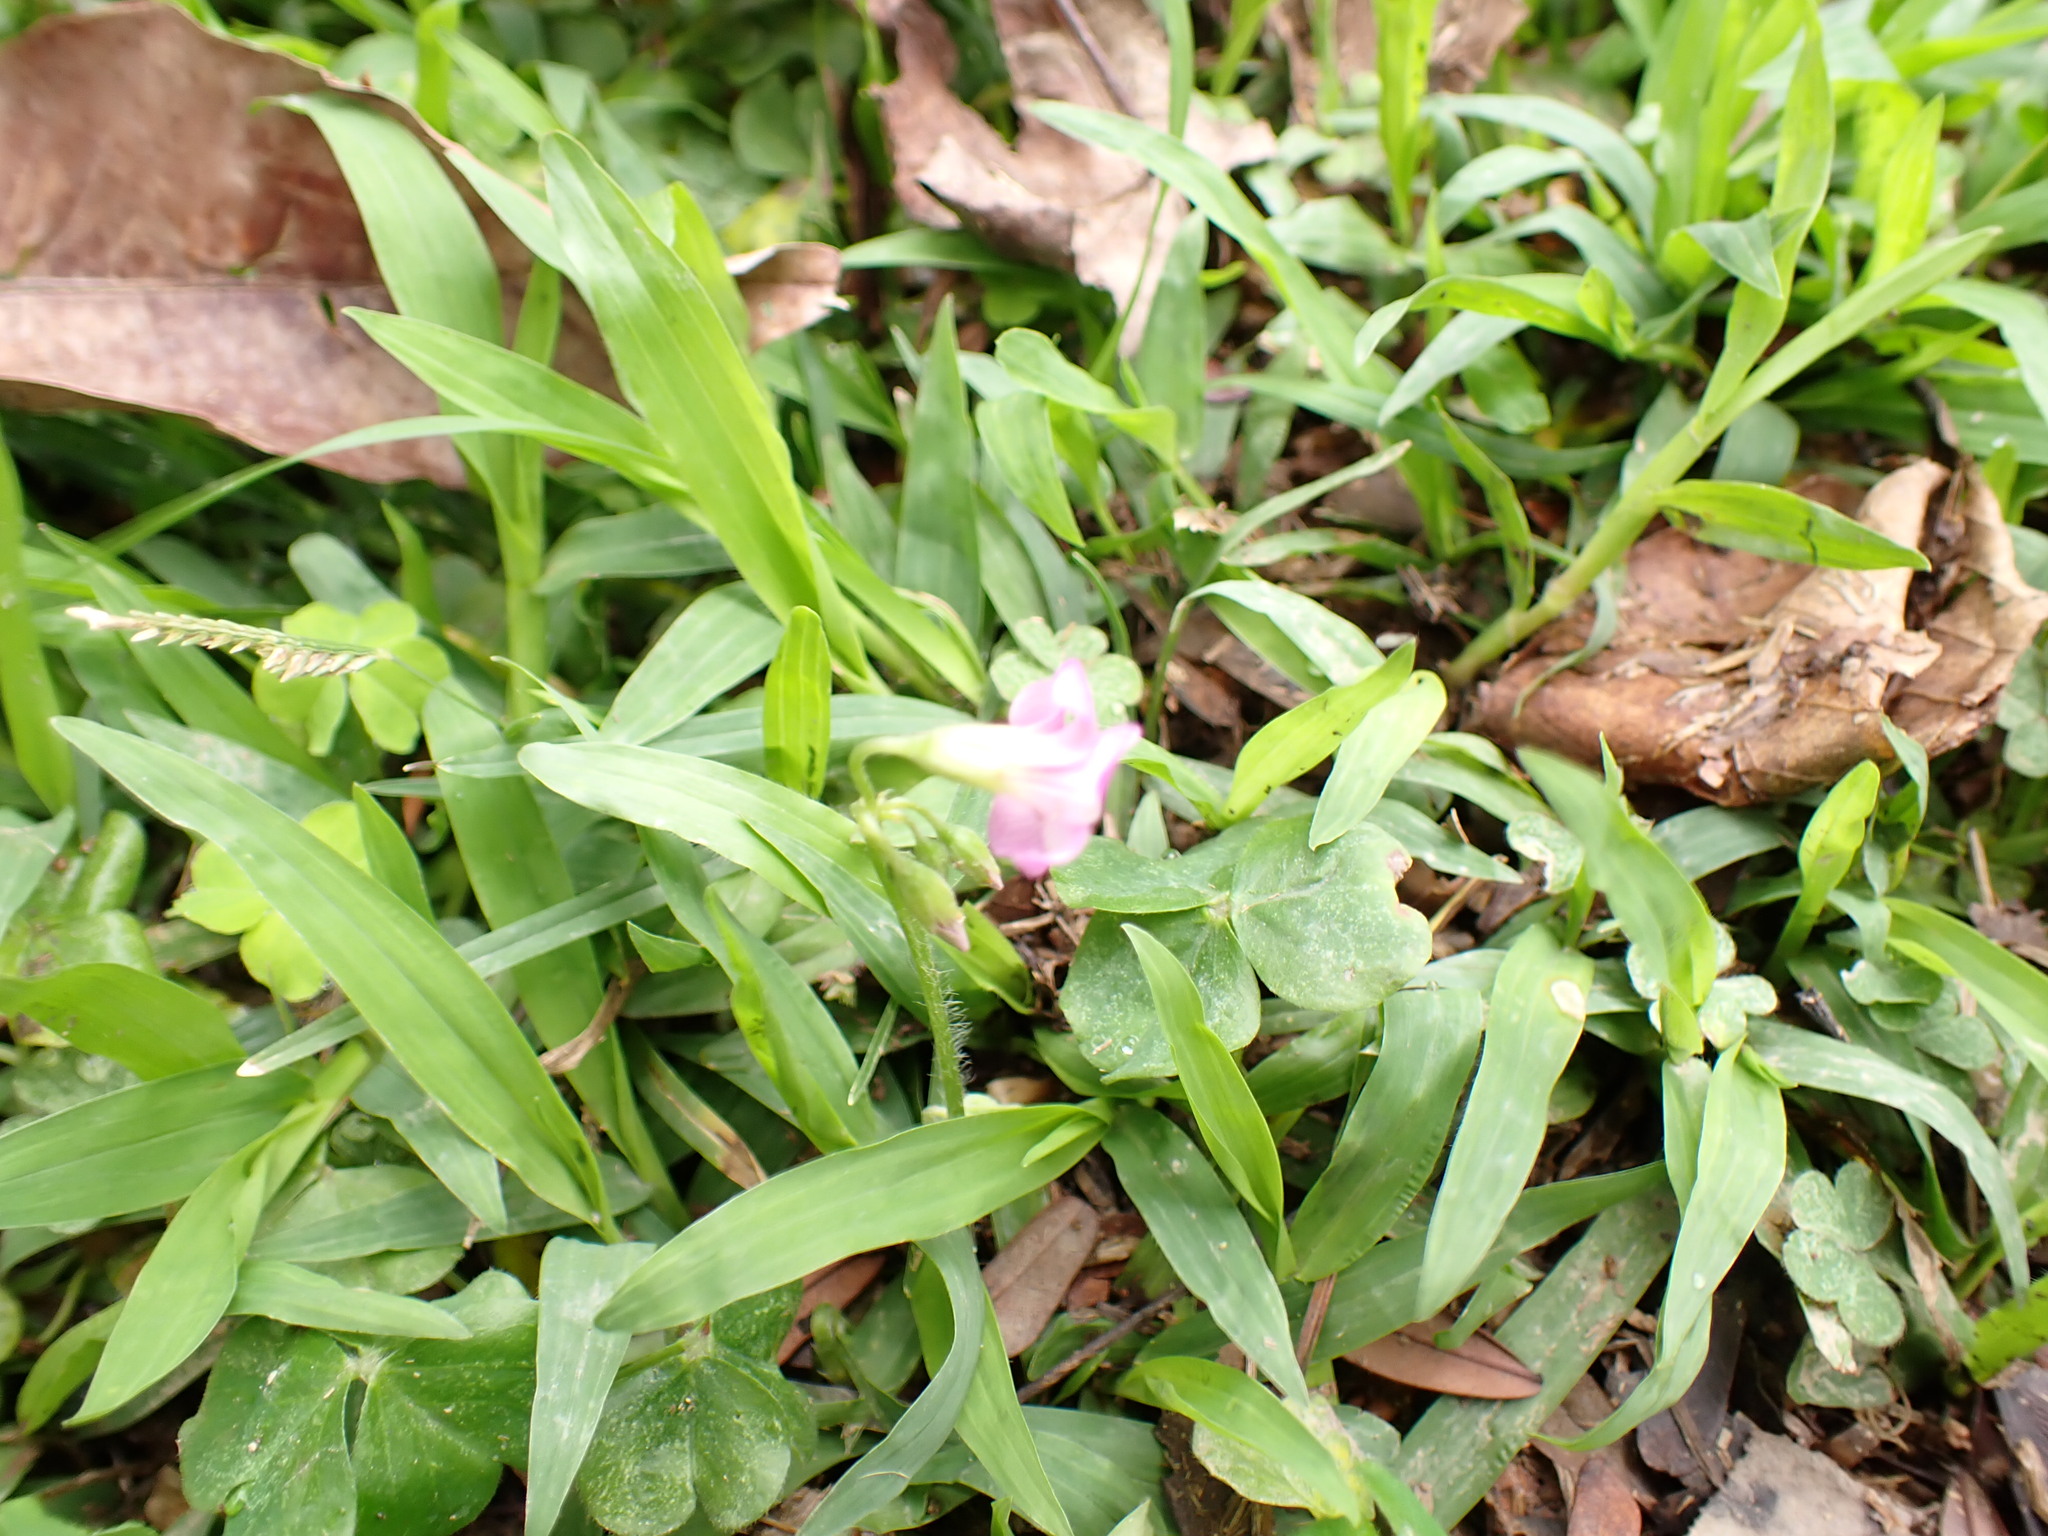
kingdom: Plantae
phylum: Tracheophyta
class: Magnoliopsida
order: Oxalidales
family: Oxalidaceae
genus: Oxalis
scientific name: Oxalis debilis
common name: Large-flowered pink-sorrel
